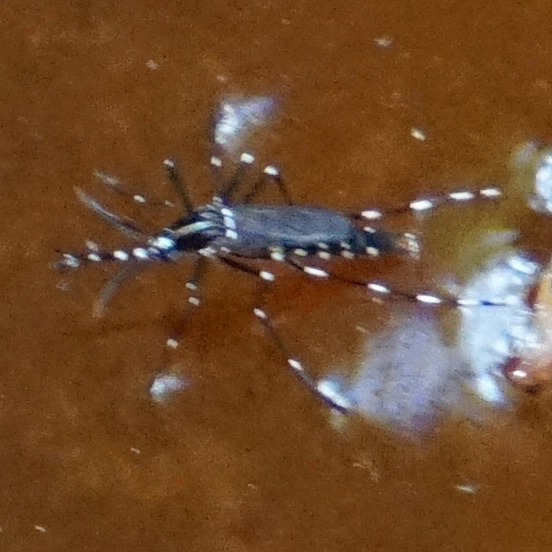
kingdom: Animalia
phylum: Arthropoda
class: Insecta
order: Diptera
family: Culicidae
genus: Aedes
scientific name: Aedes albopictus
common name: Tiger mosquito
